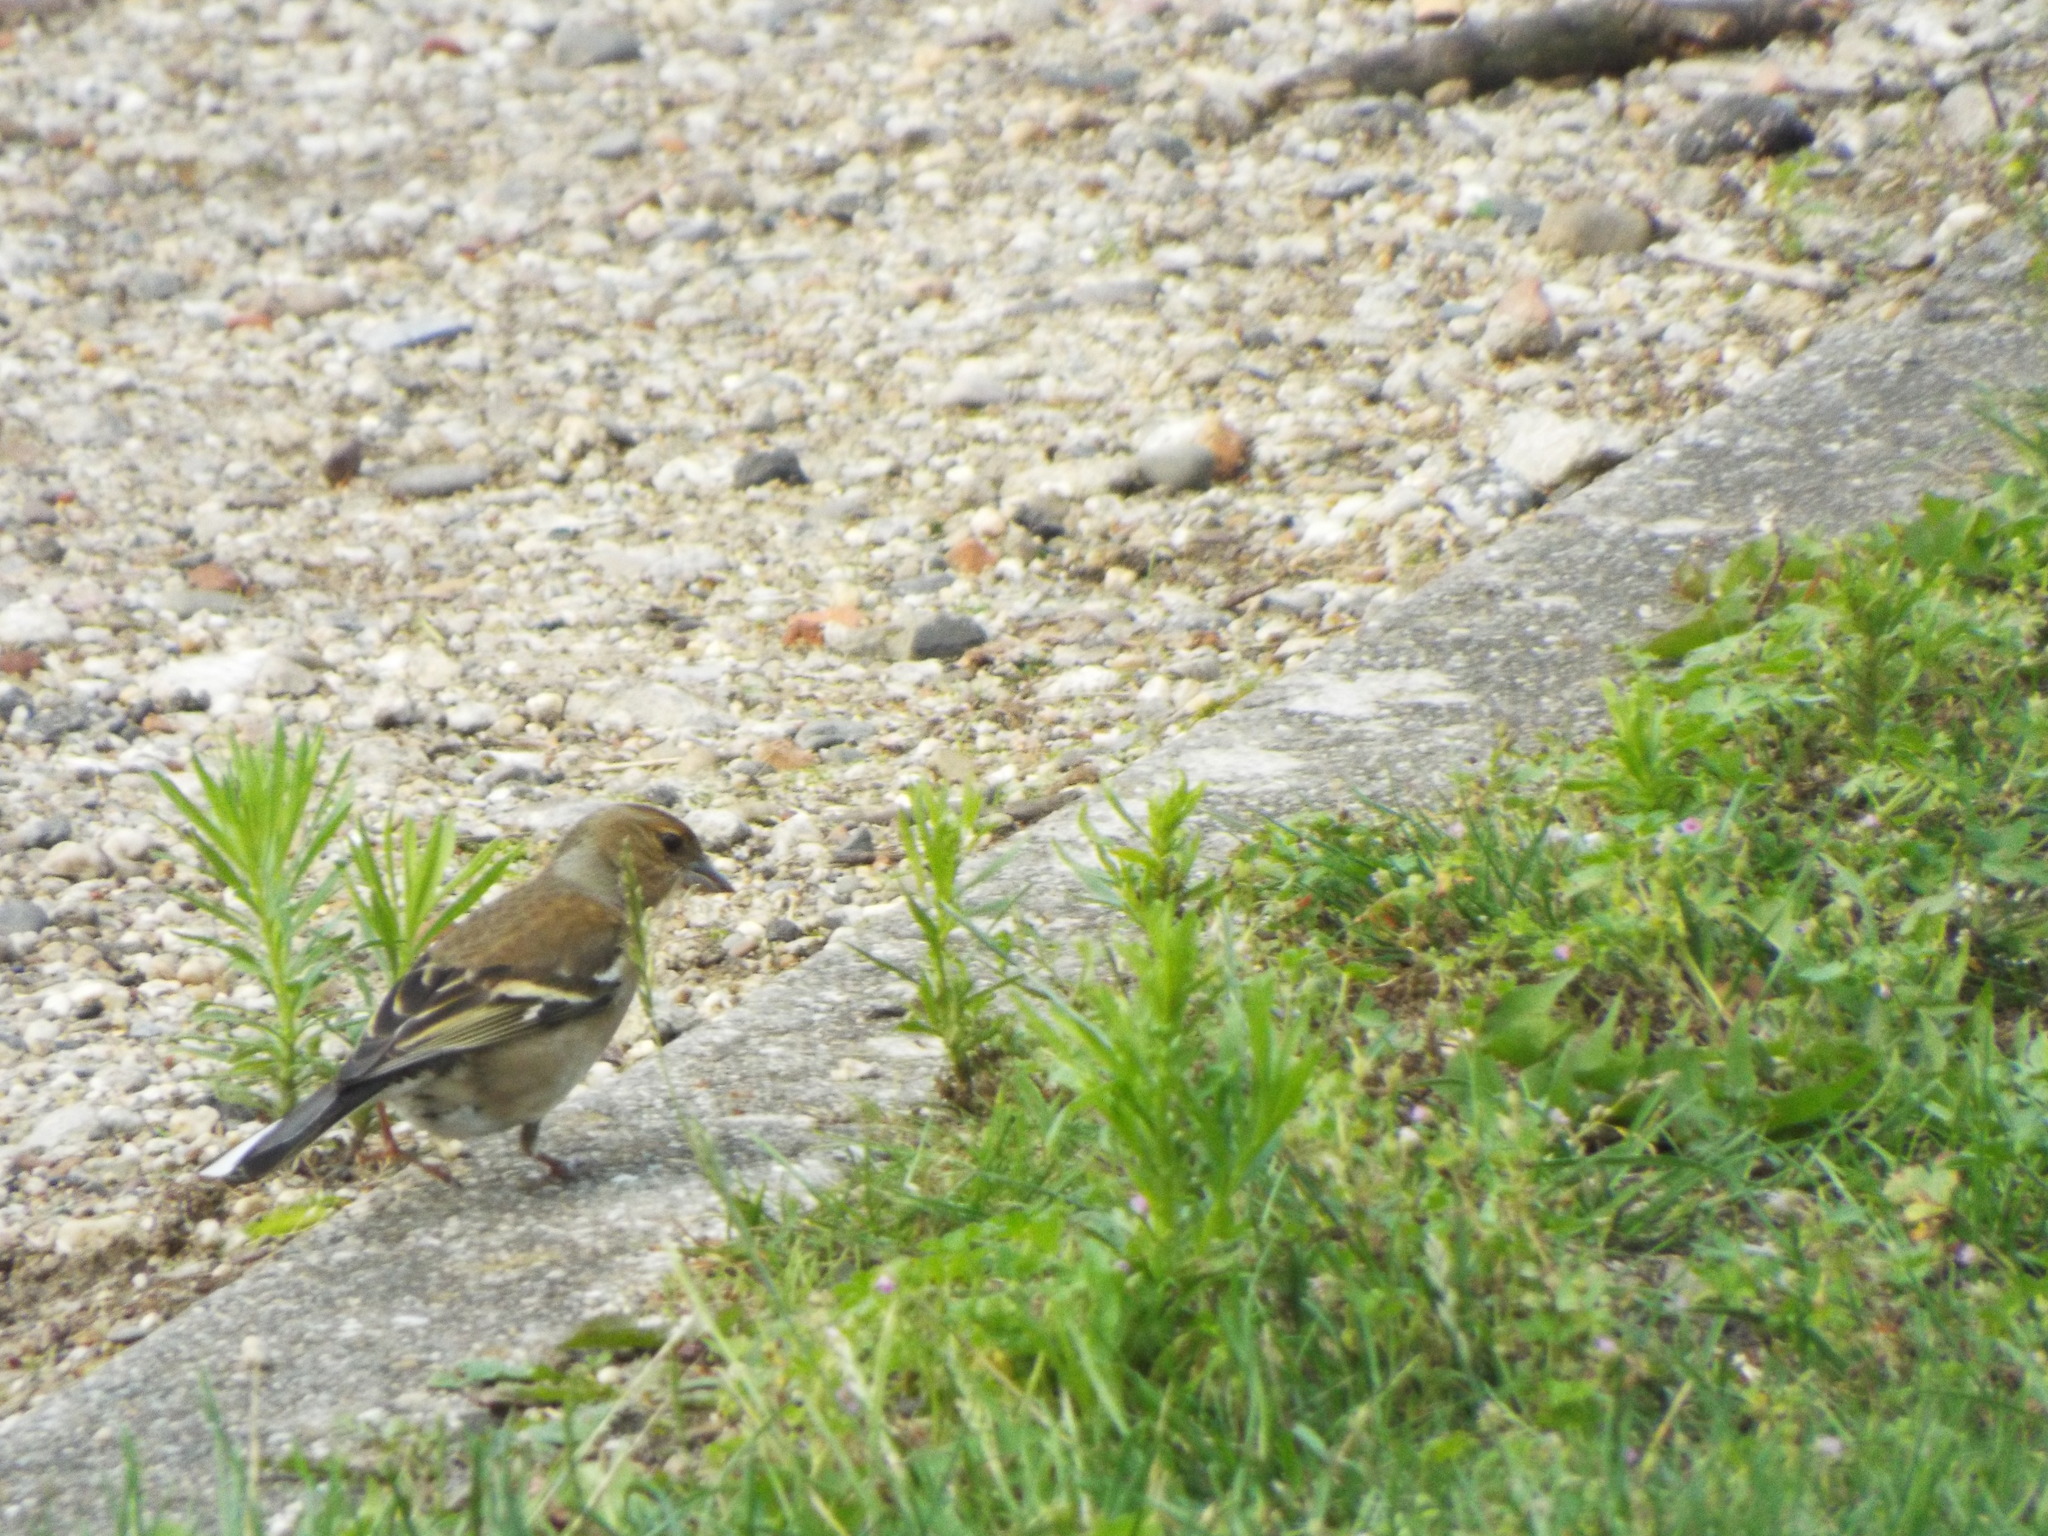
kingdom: Animalia
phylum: Chordata
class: Aves
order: Passeriformes
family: Fringillidae
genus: Fringilla
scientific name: Fringilla coelebs
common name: Common chaffinch
